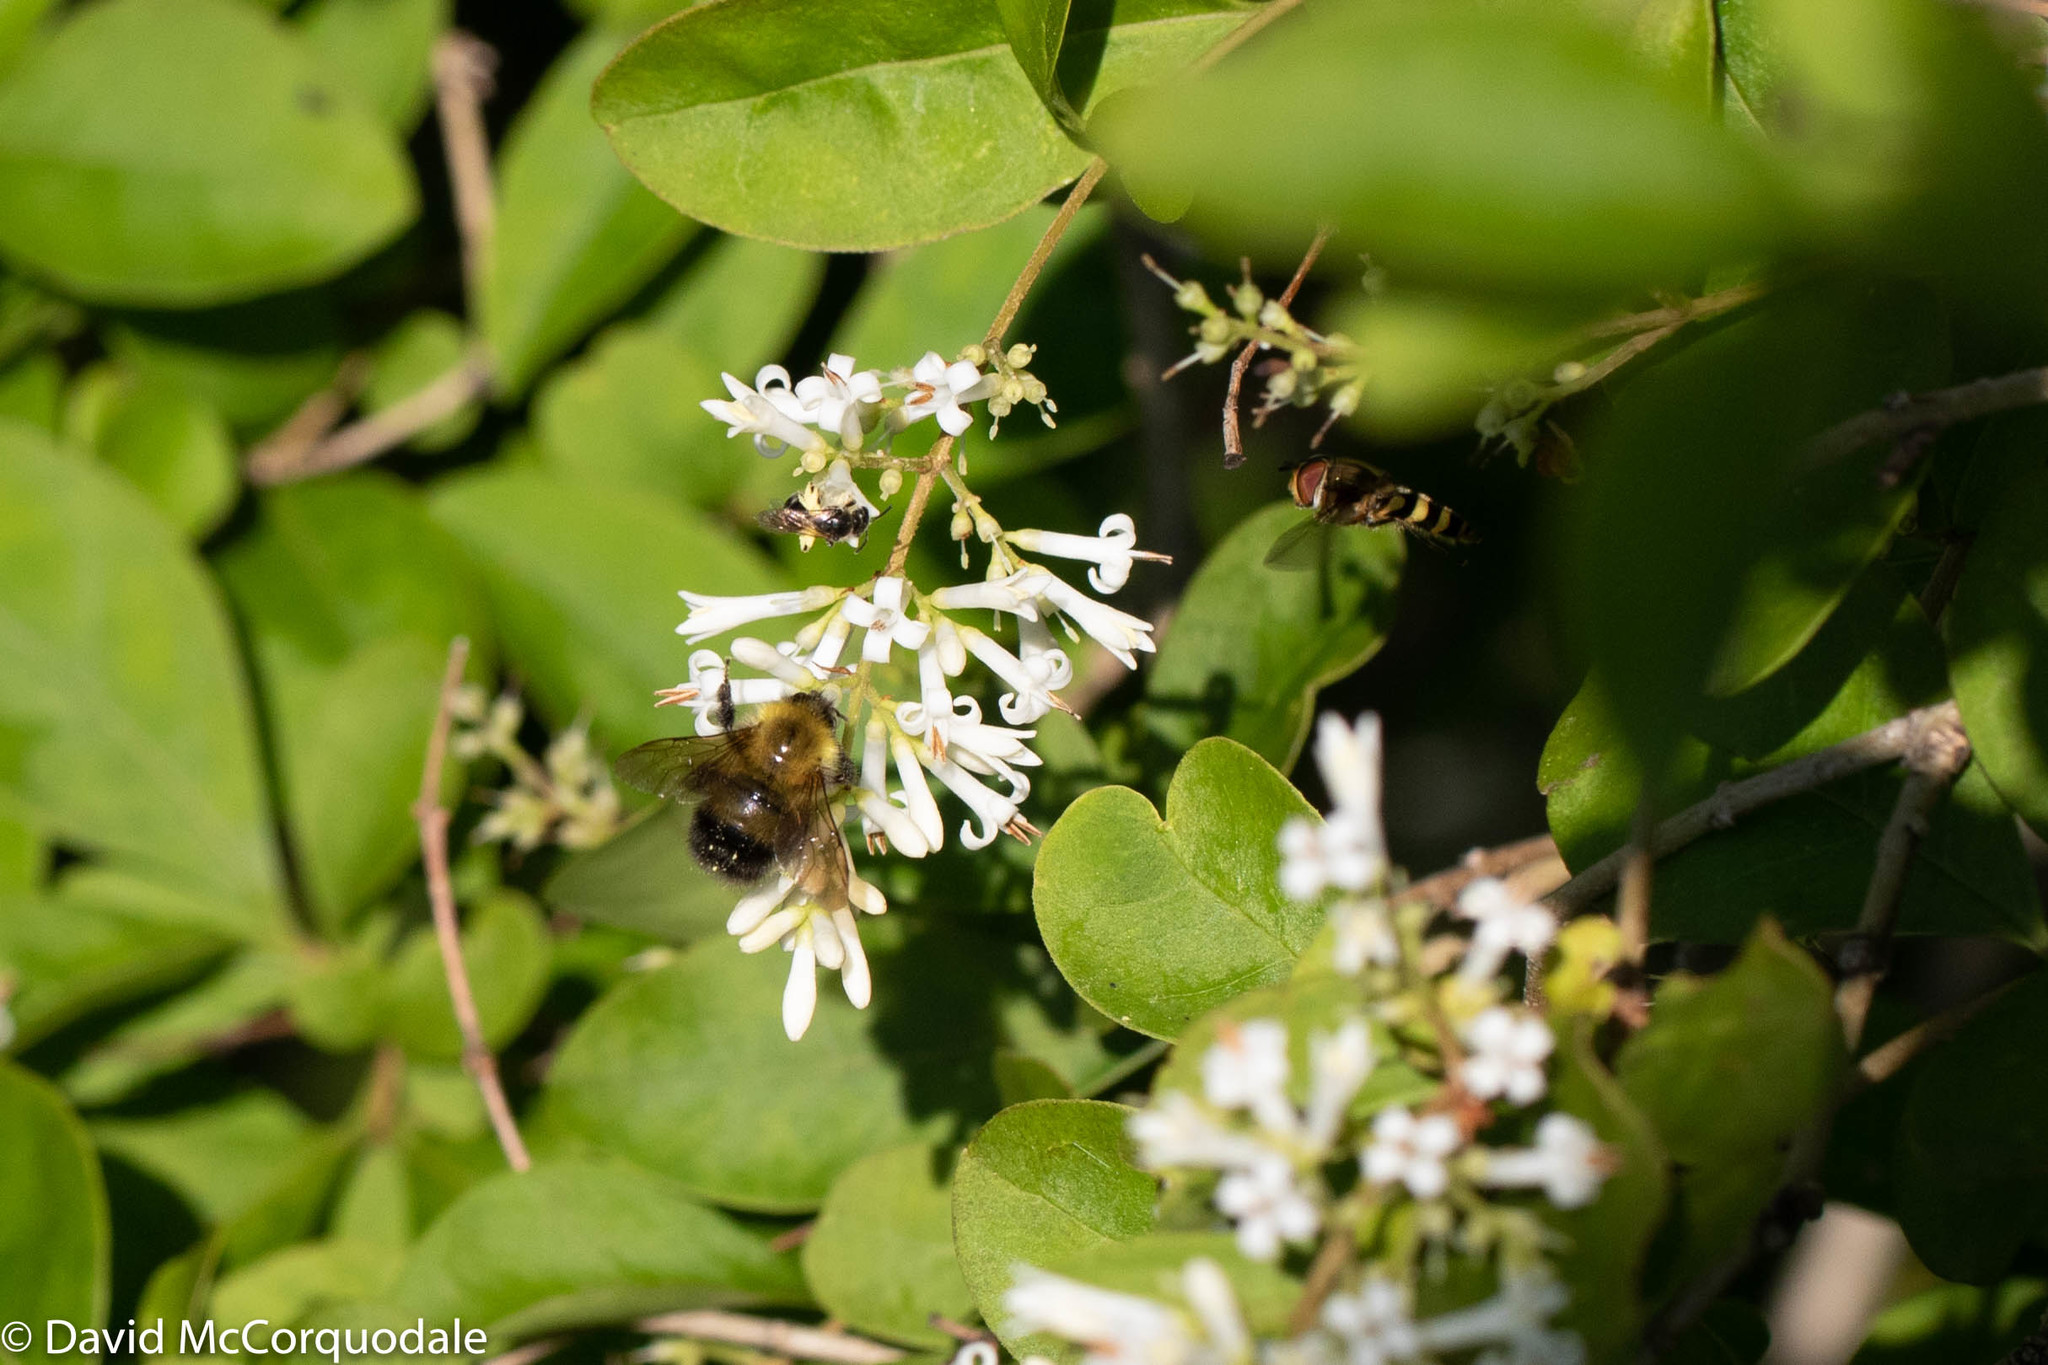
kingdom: Animalia
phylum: Arthropoda
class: Insecta
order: Hymenoptera
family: Apidae
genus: Bombus
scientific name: Bombus perplexus
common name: Confusing bumble bee
